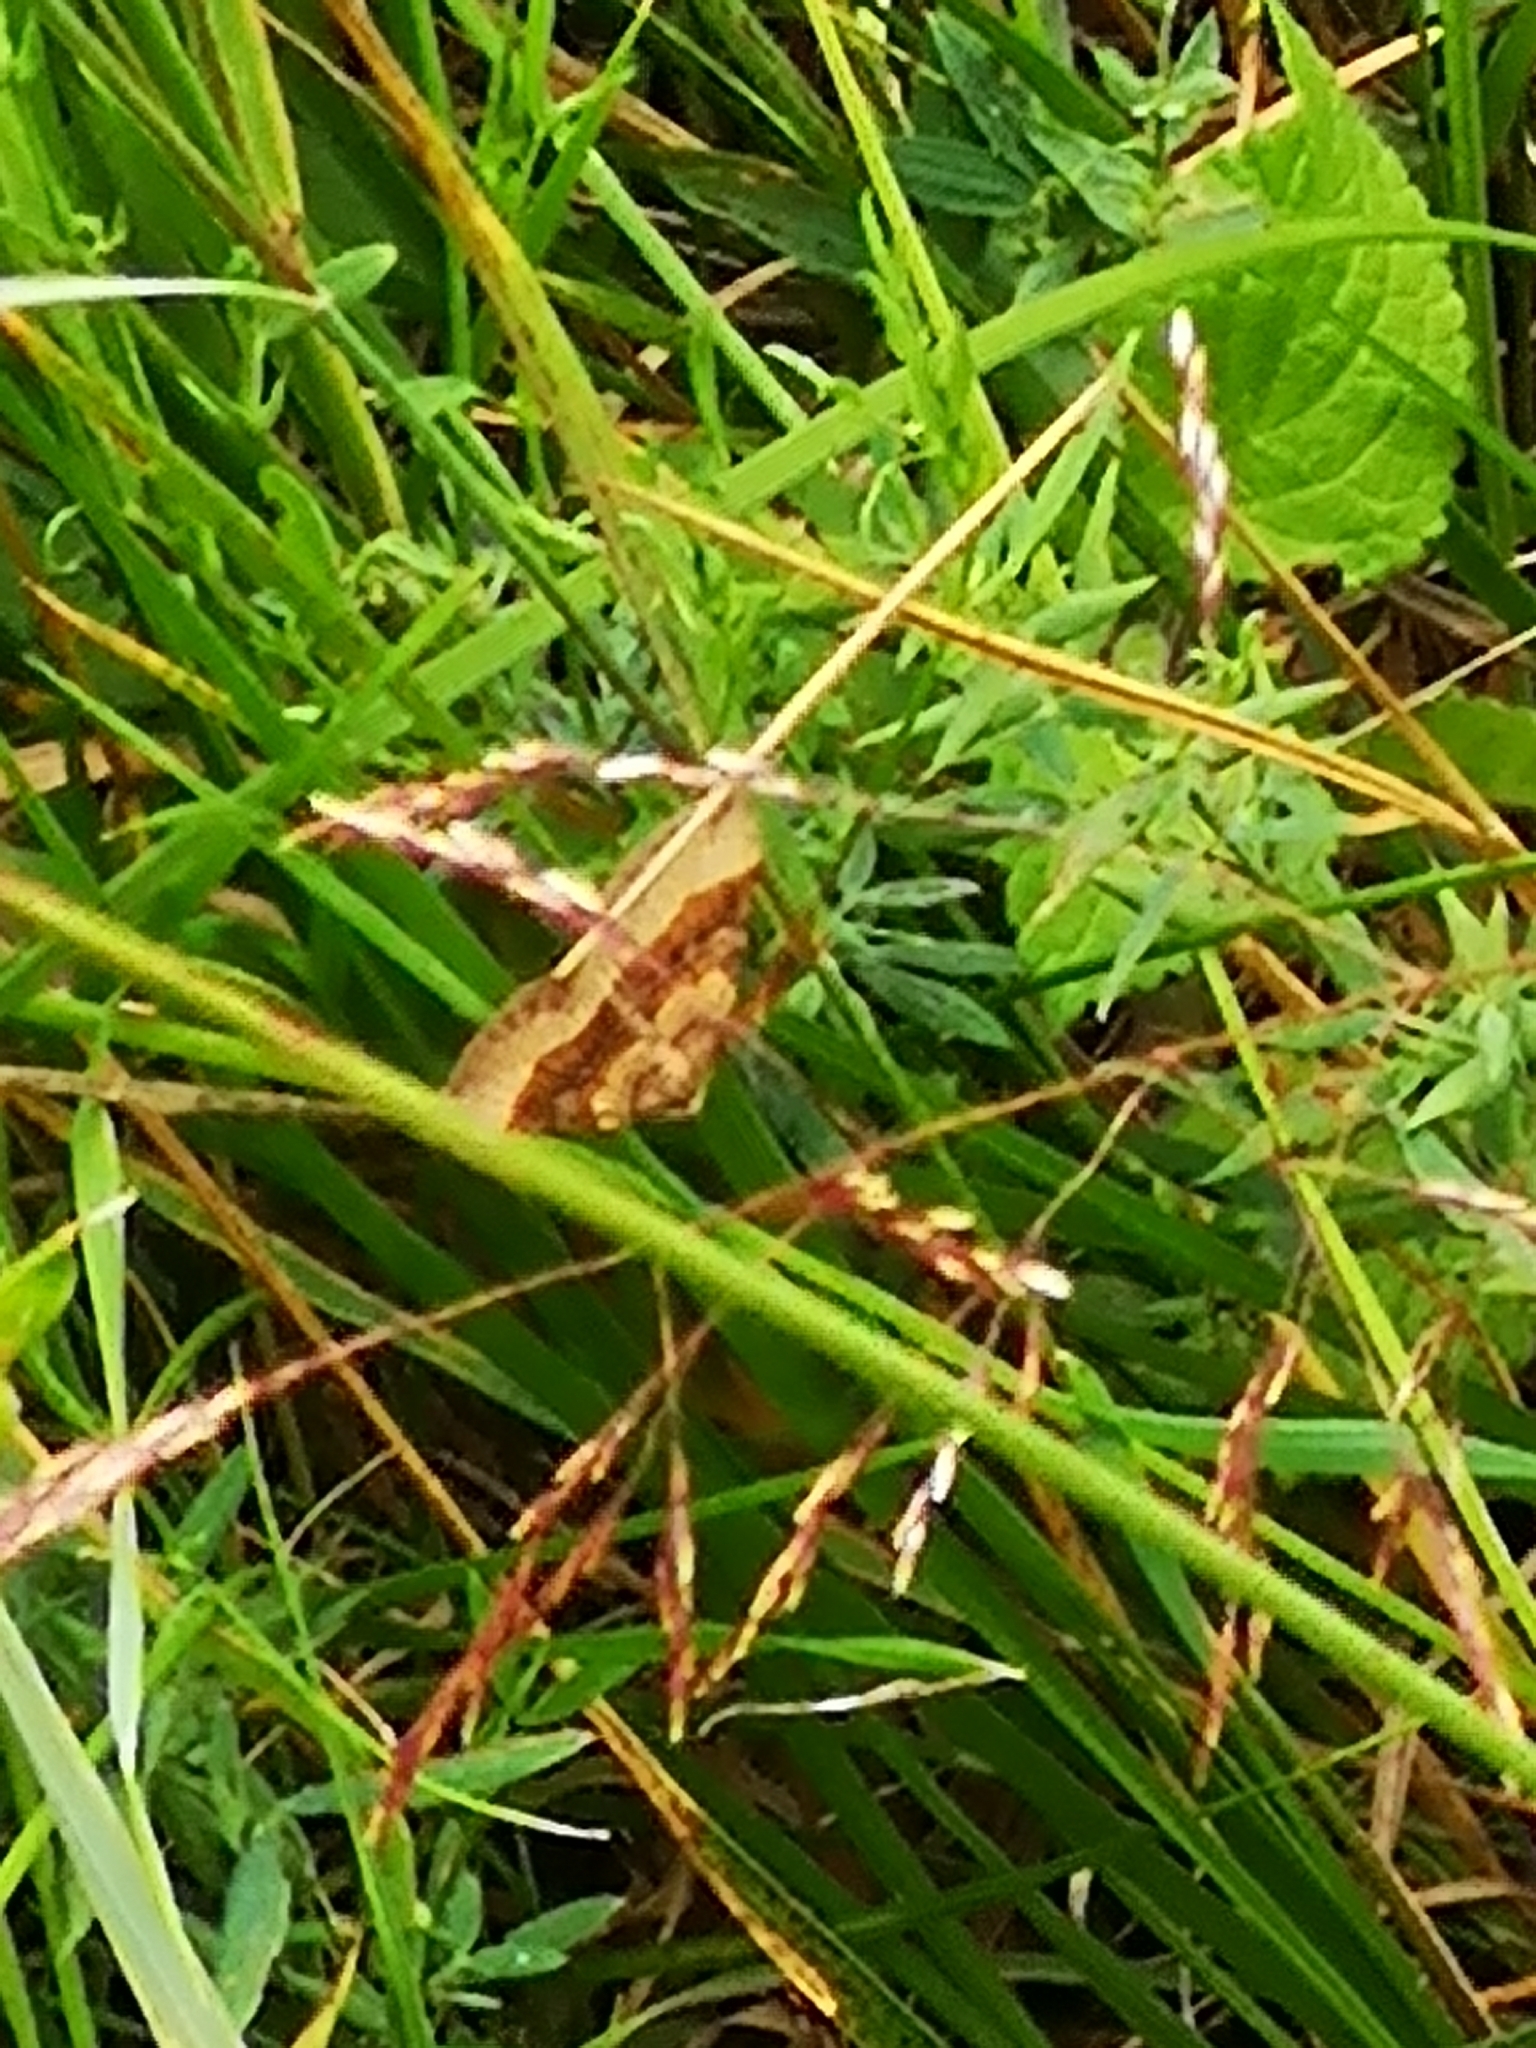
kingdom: Animalia
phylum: Arthropoda
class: Insecta
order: Lepidoptera
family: Geometridae
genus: Scotopteryx
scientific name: Scotopteryx chenopodiata
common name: Shaded broad-bar
